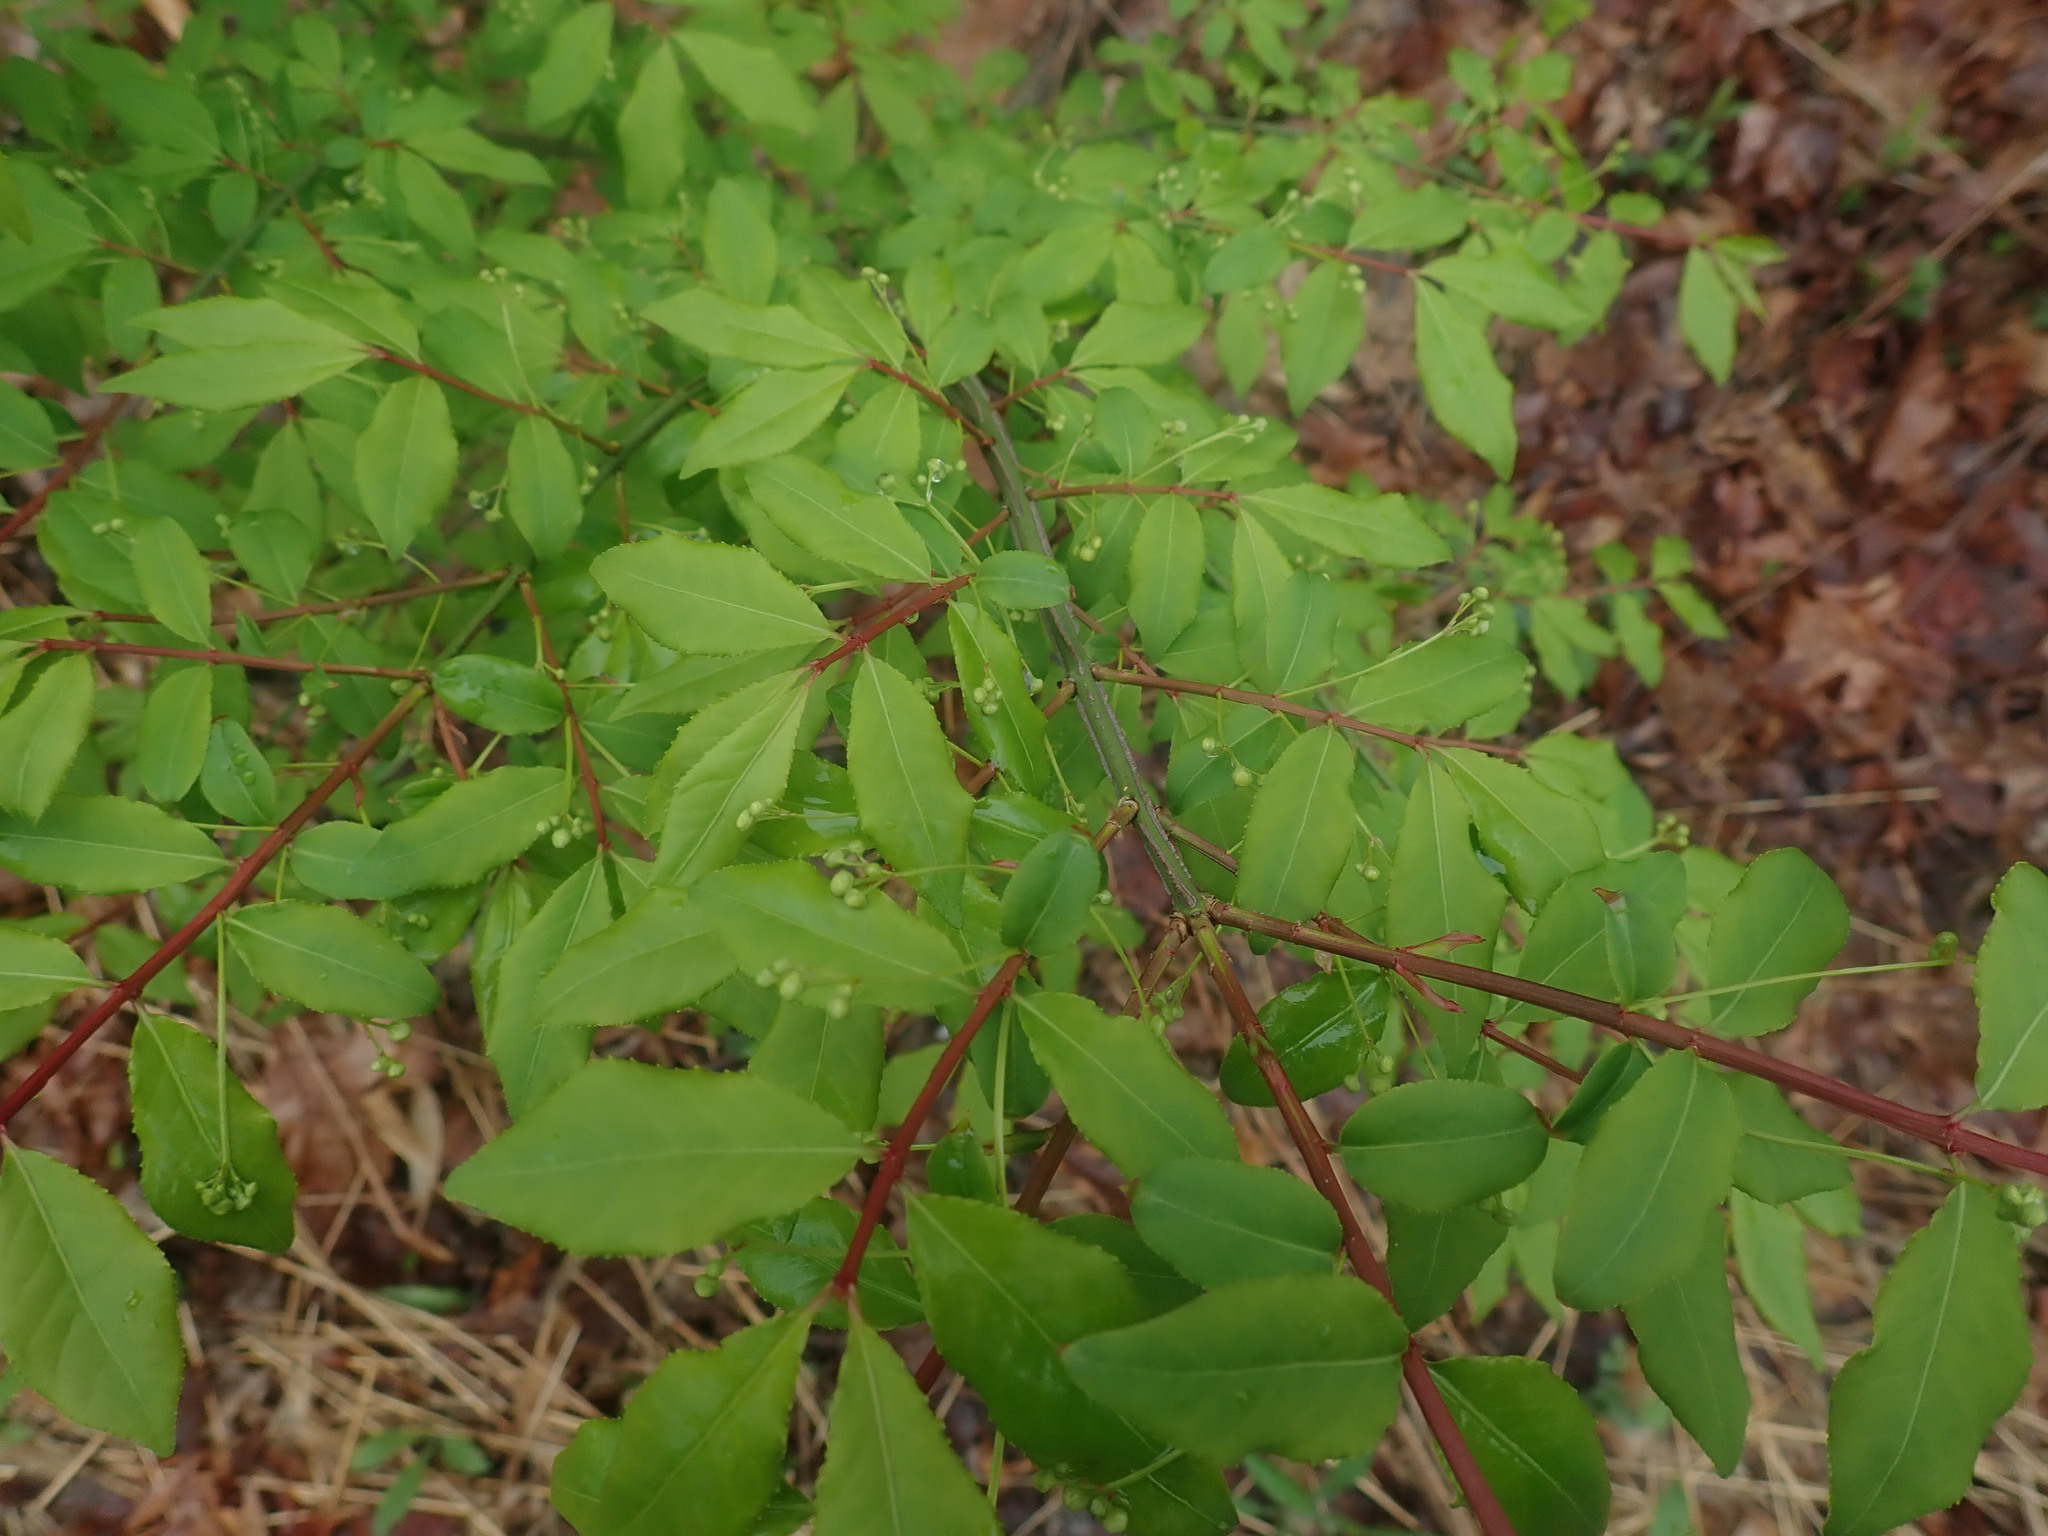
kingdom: Plantae
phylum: Tracheophyta
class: Magnoliopsida
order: Celastrales
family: Celastraceae
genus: Euonymus
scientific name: Euonymus alatus
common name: Winged euonymus
